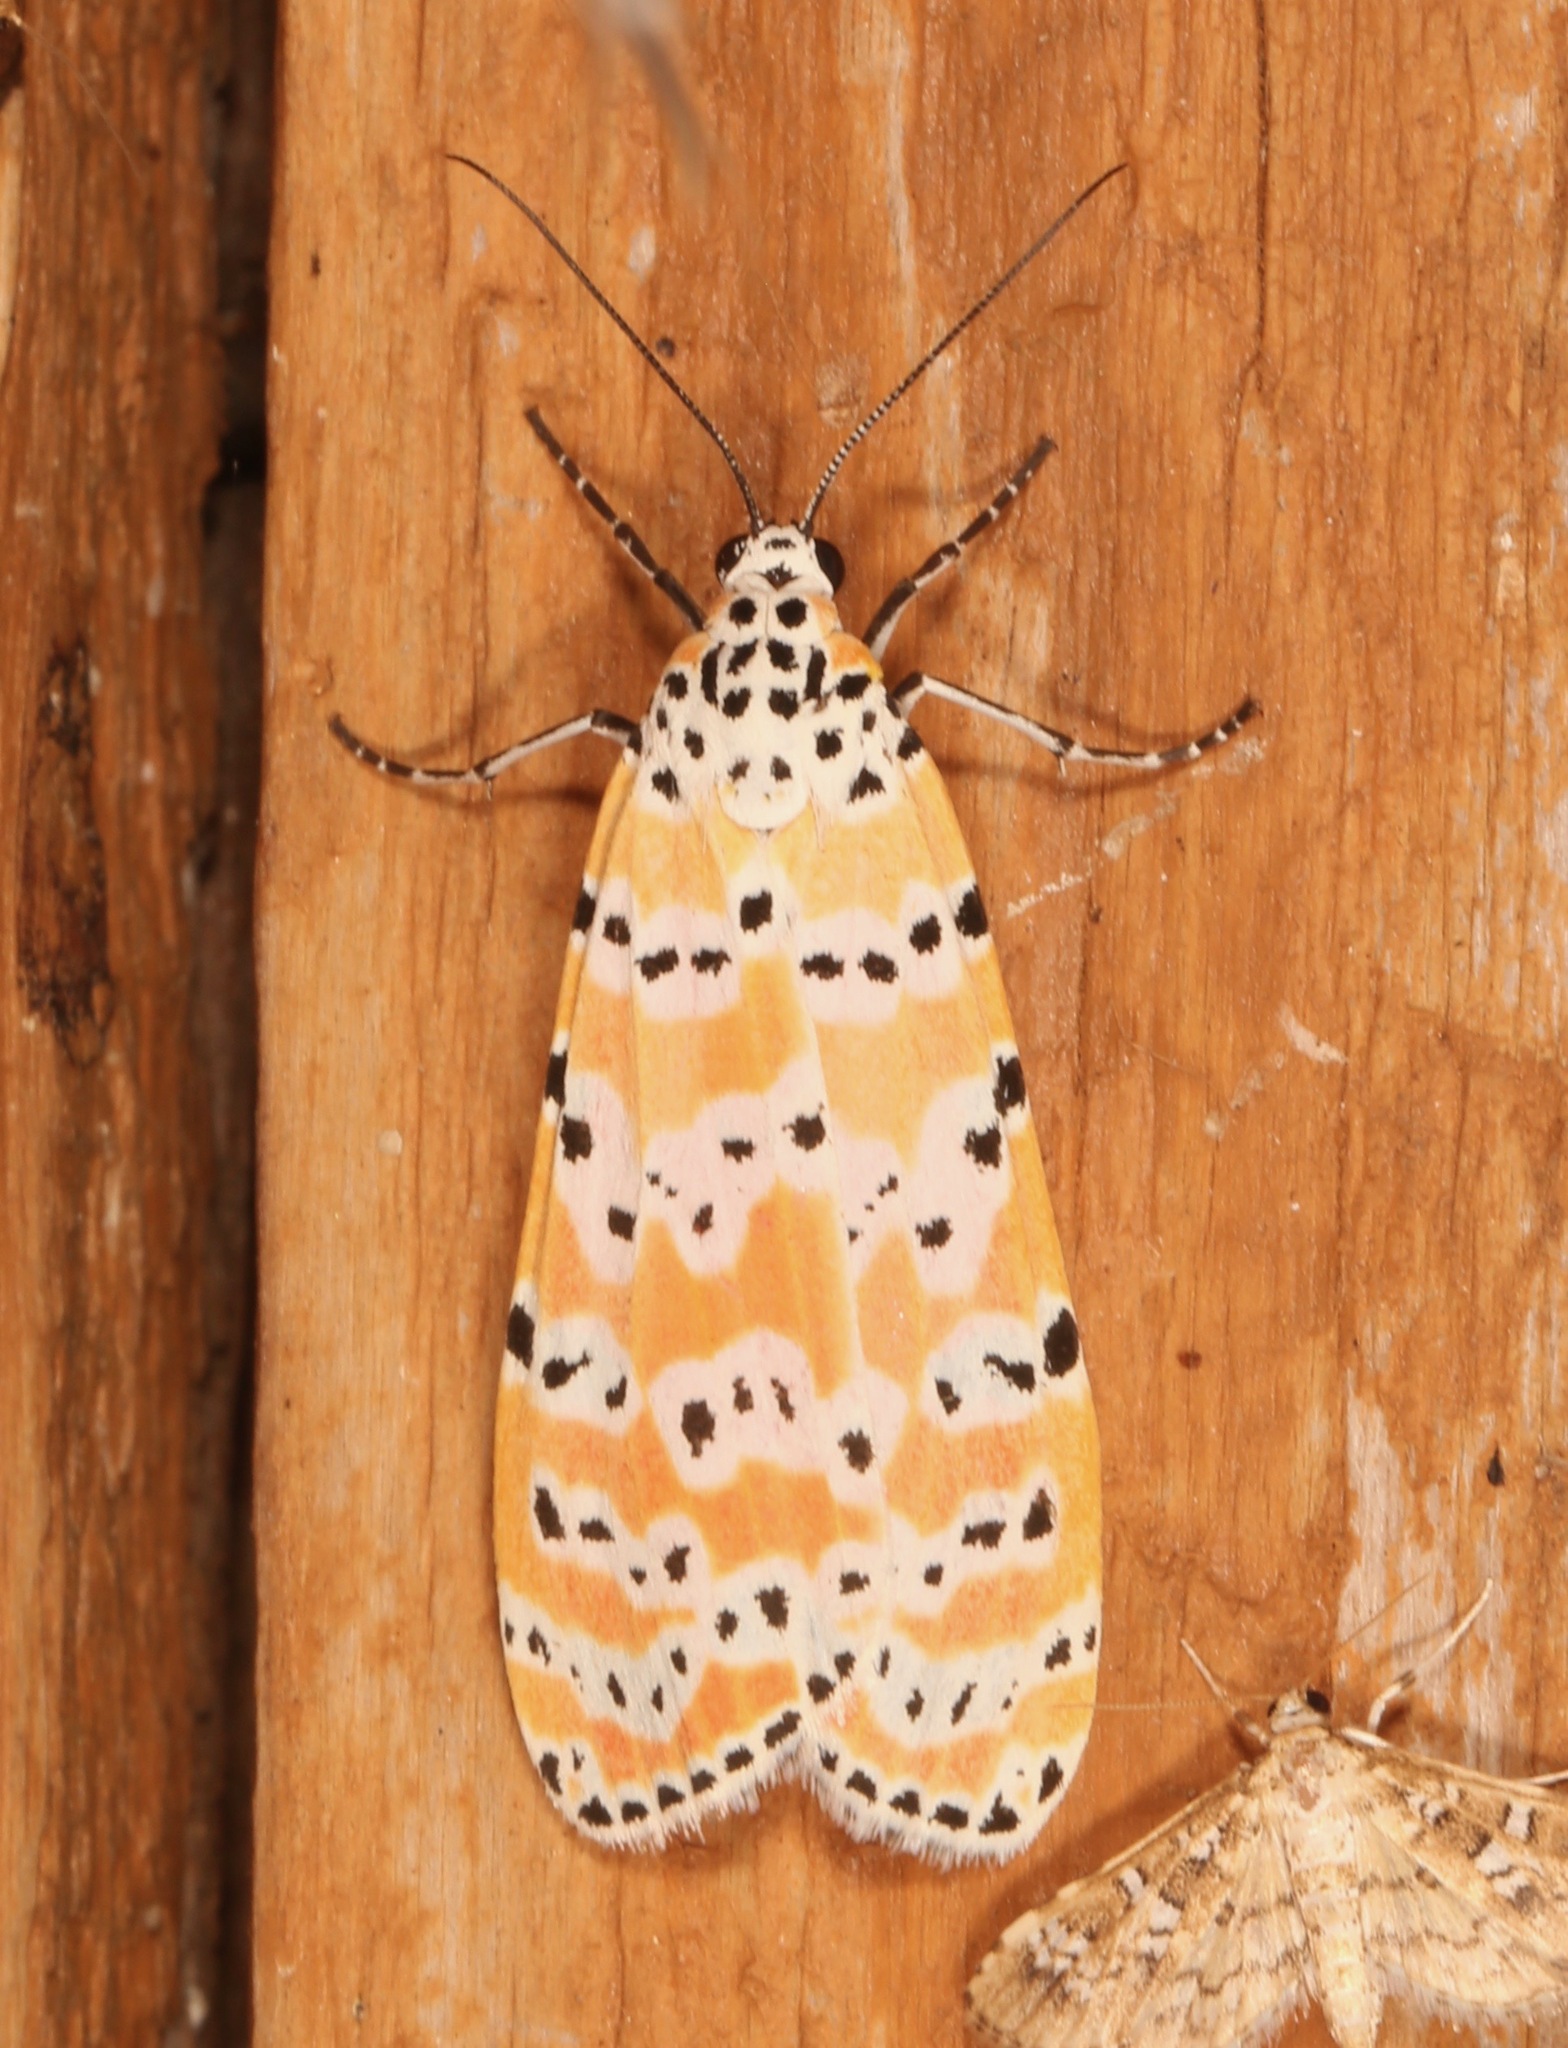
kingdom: Animalia
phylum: Arthropoda
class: Insecta
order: Lepidoptera
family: Erebidae
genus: Utetheisa
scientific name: Utetheisa ornatrix
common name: Beautiful utetheisa
